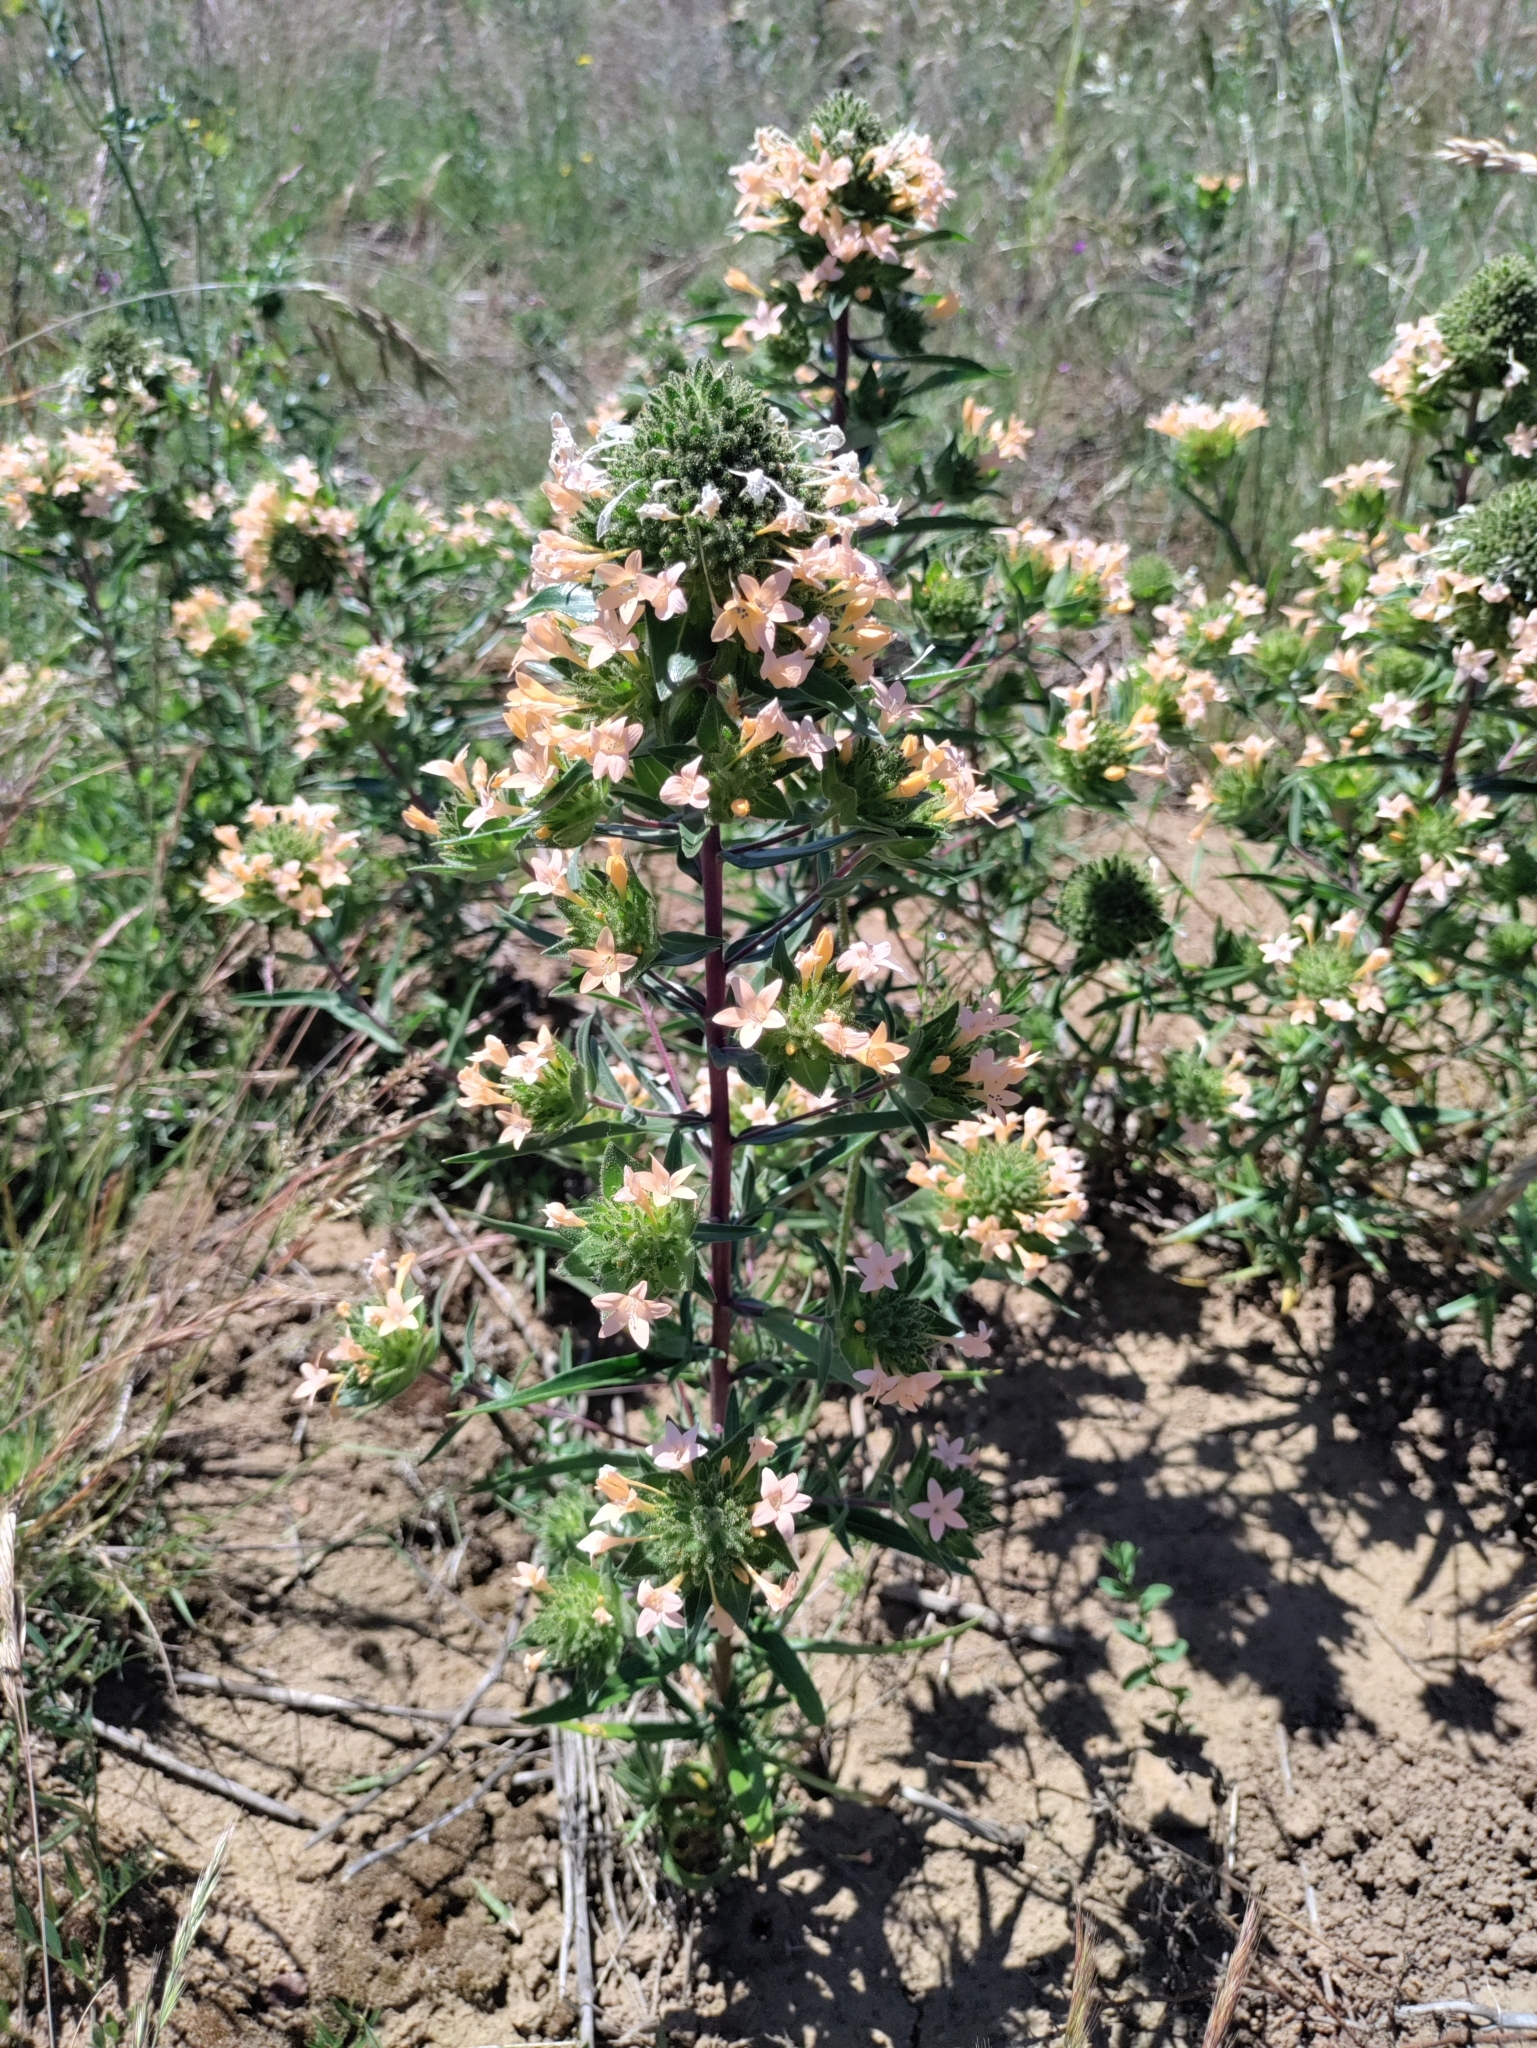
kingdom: Plantae
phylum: Tracheophyta
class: Magnoliopsida
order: Ericales
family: Polemoniaceae
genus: Collomia
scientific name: Collomia grandiflora
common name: California strawflower
